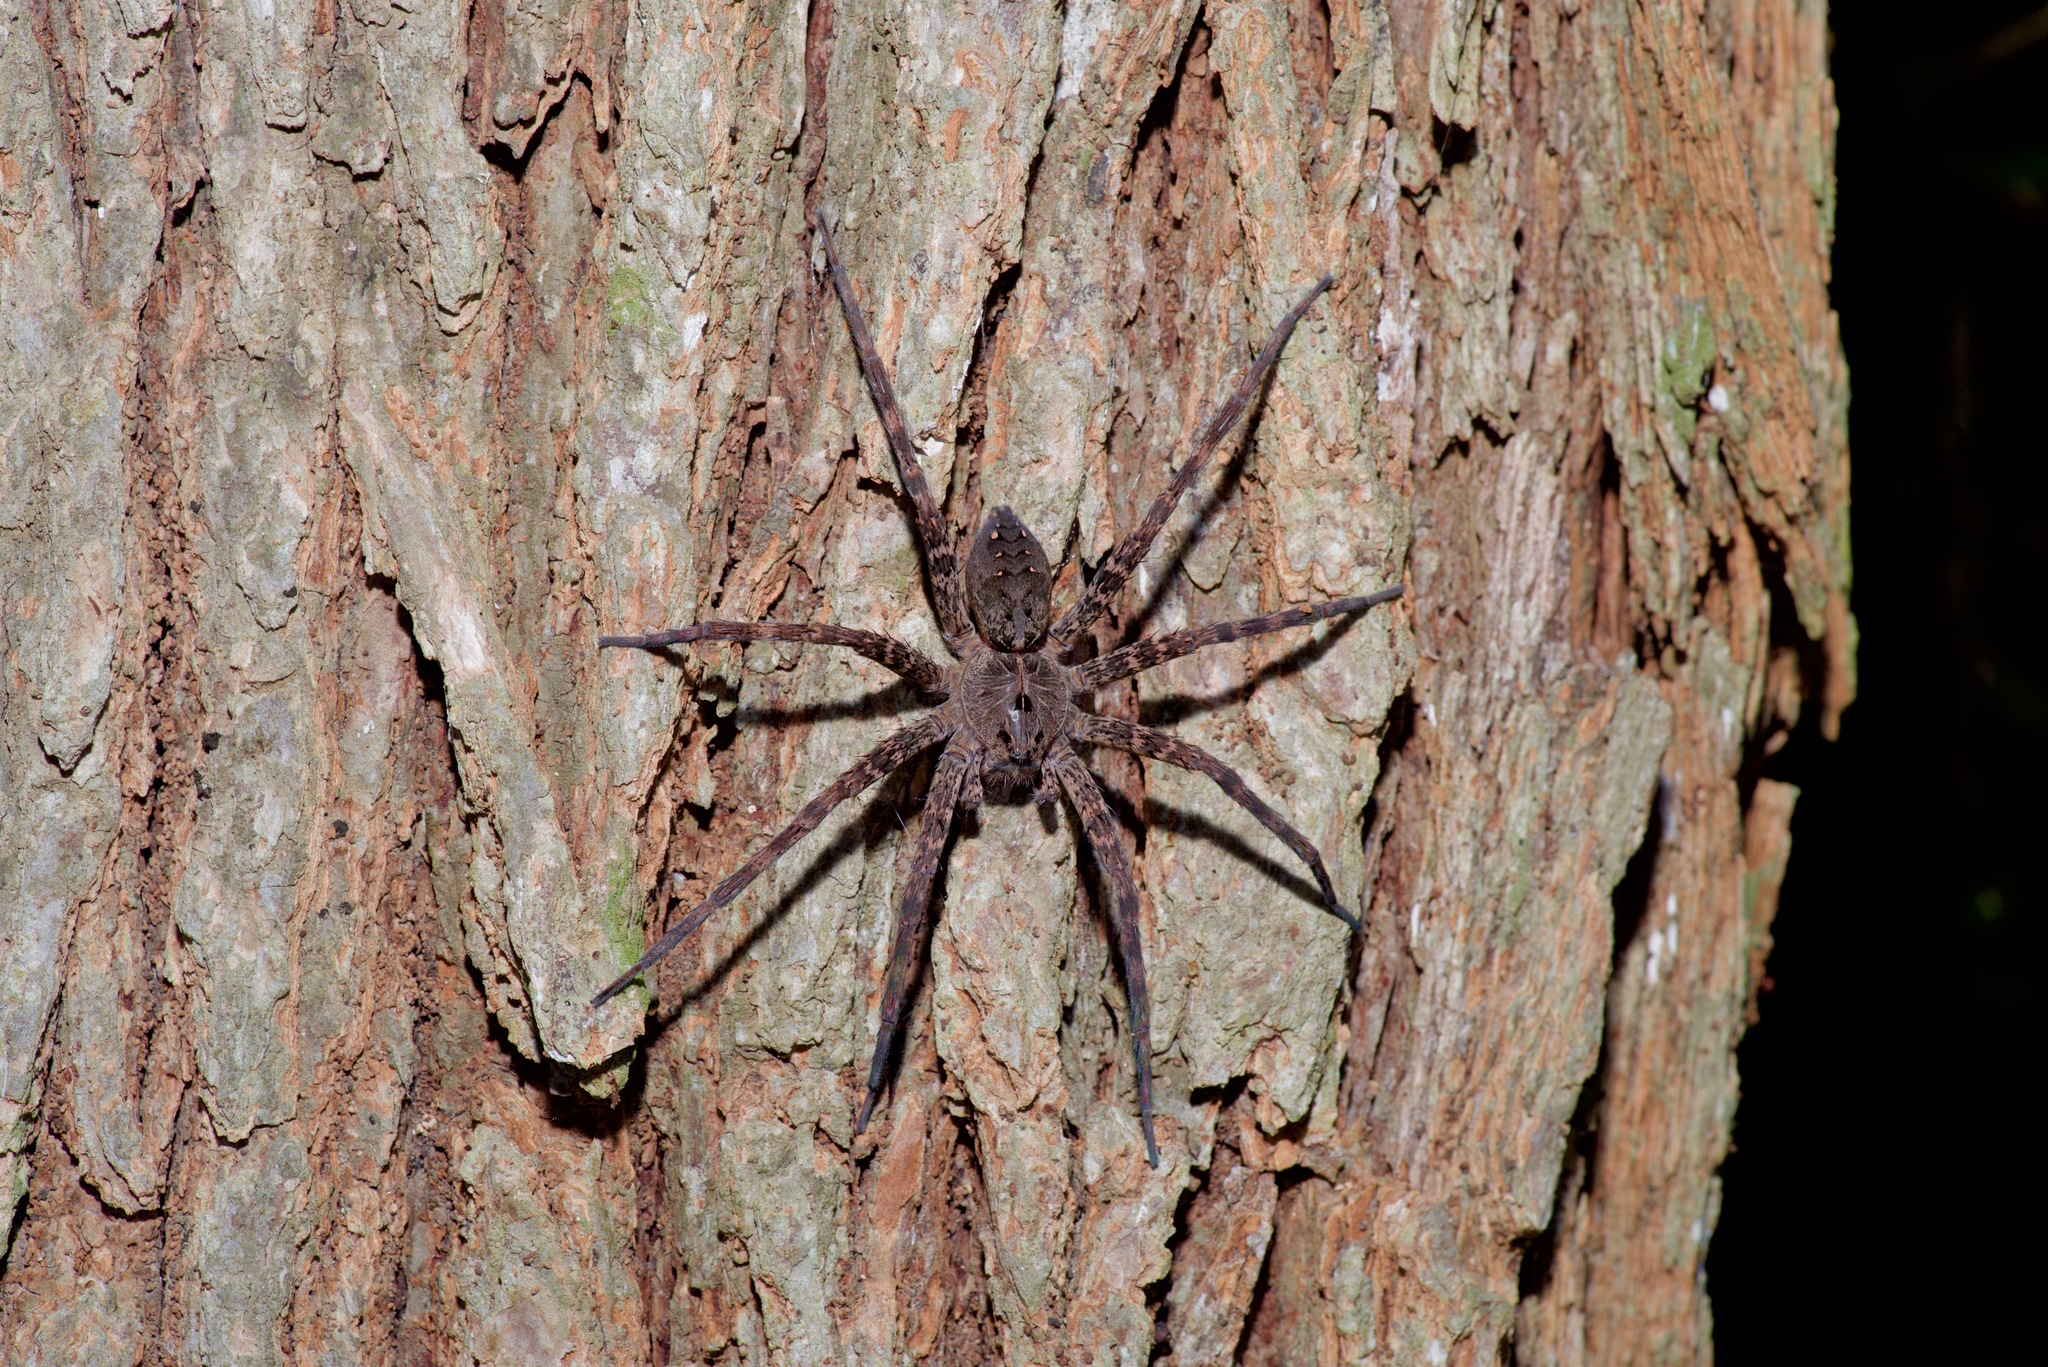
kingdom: Animalia
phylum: Arthropoda
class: Arachnida
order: Araneae
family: Pisauridae
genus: Dolomedes
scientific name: Dolomedes vittatus
